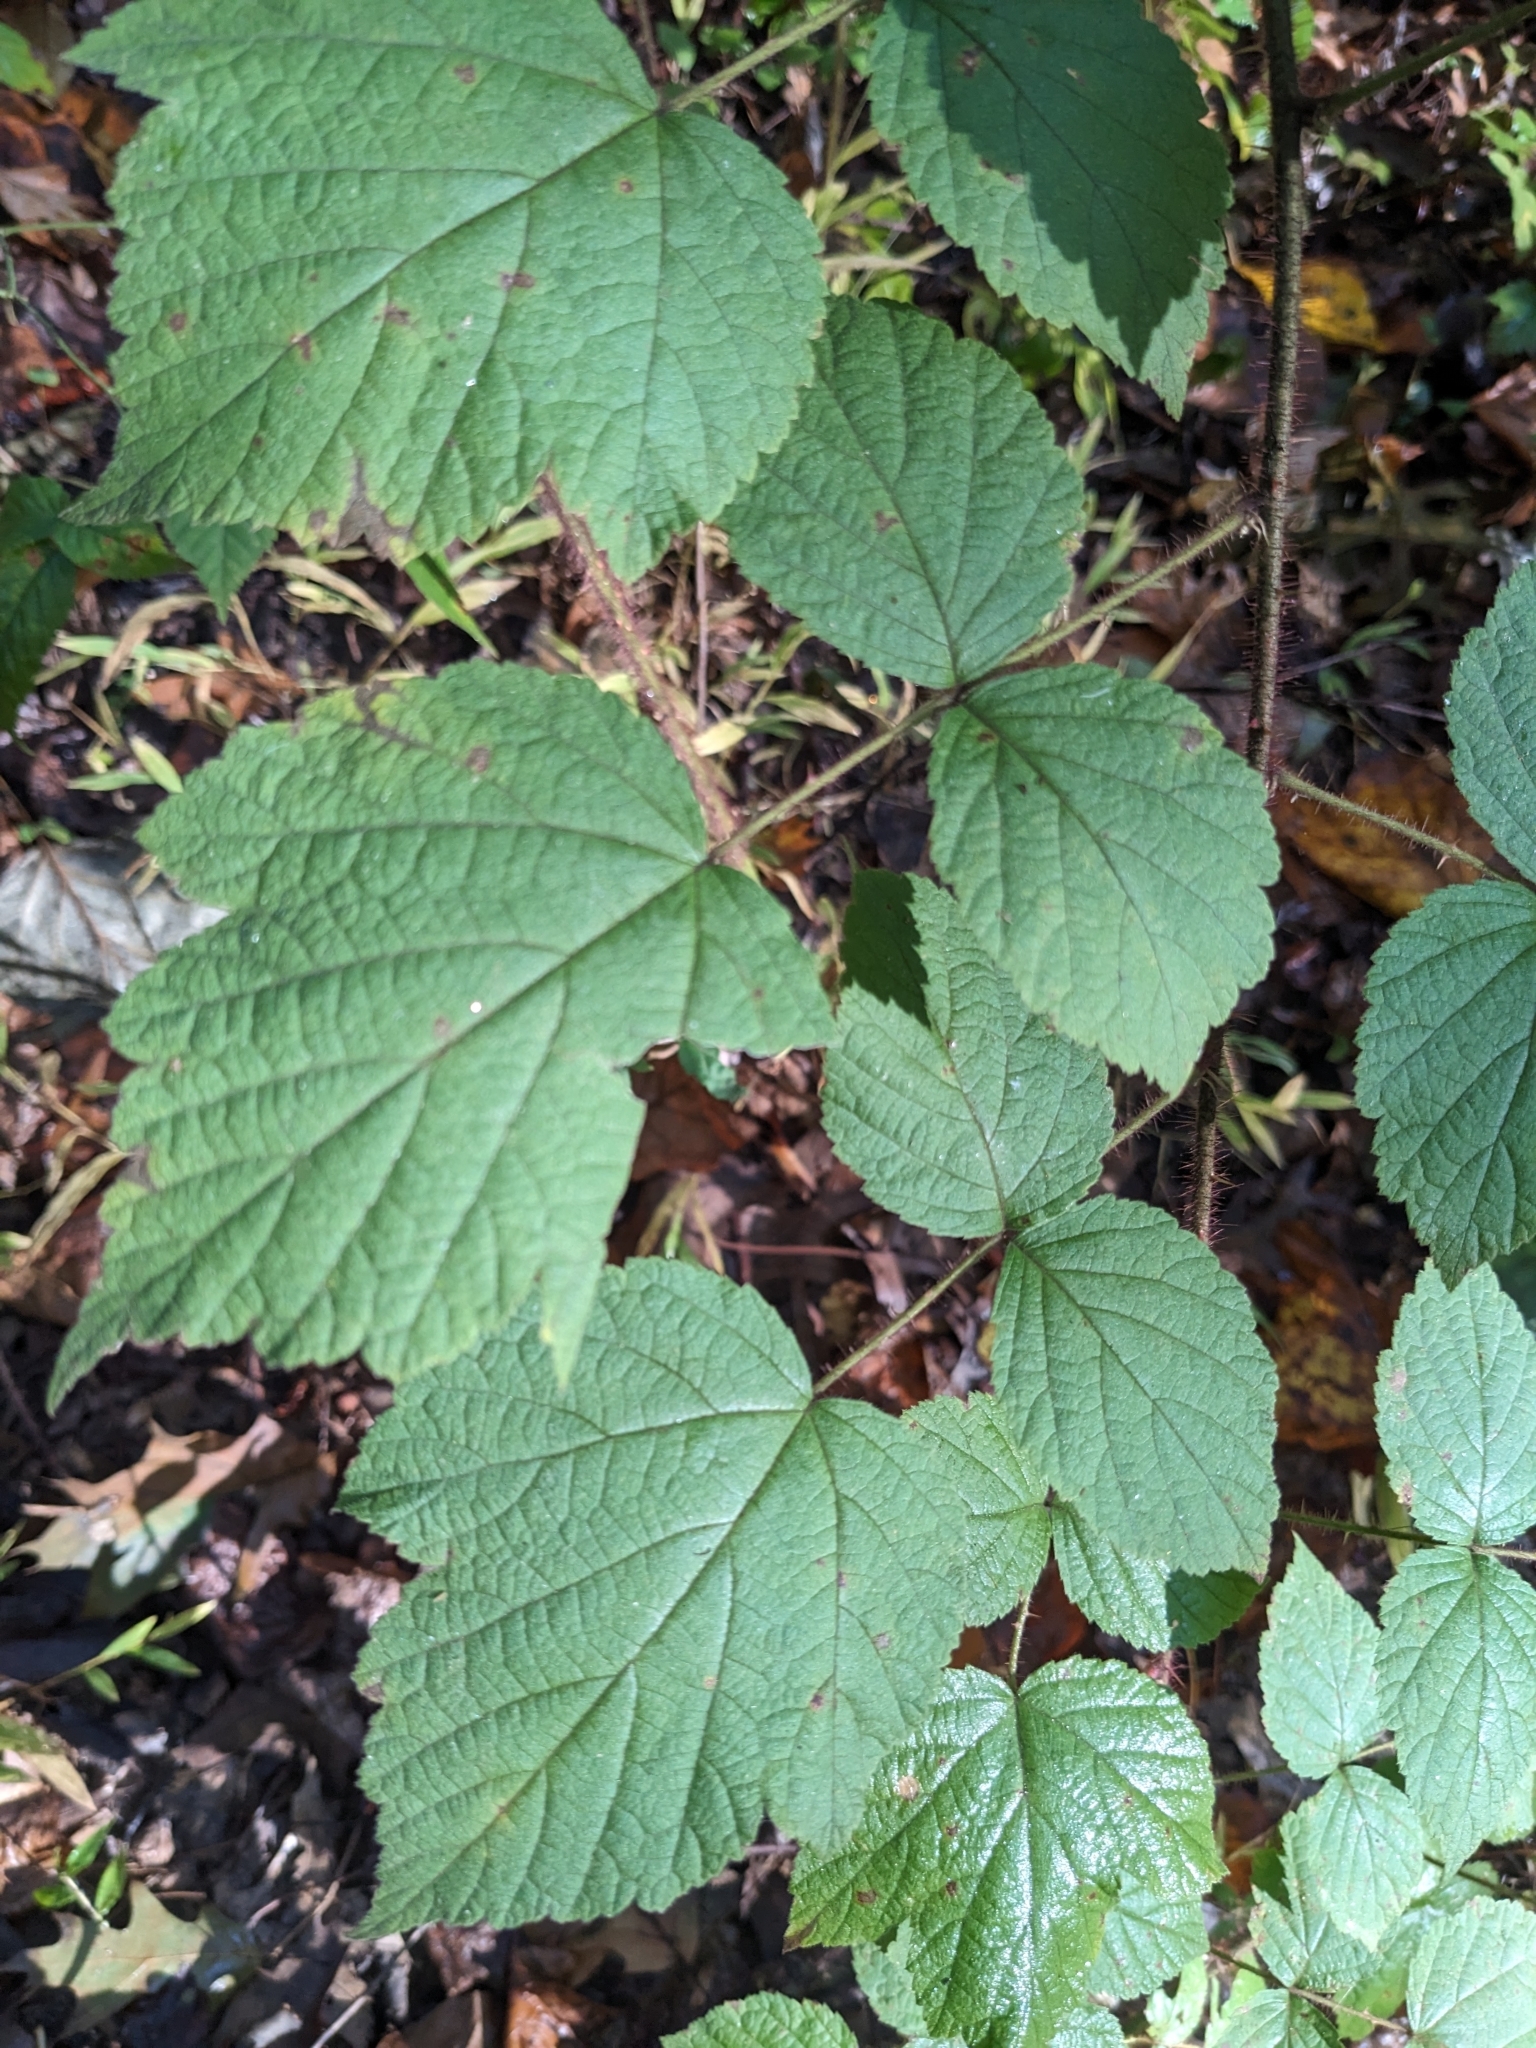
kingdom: Plantae
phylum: Tracheophyta
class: Magnoliopsida
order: Rosales
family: Rosaceae
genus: Rubus
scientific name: Rubus phoenicolasius
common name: Japanese wineberry
